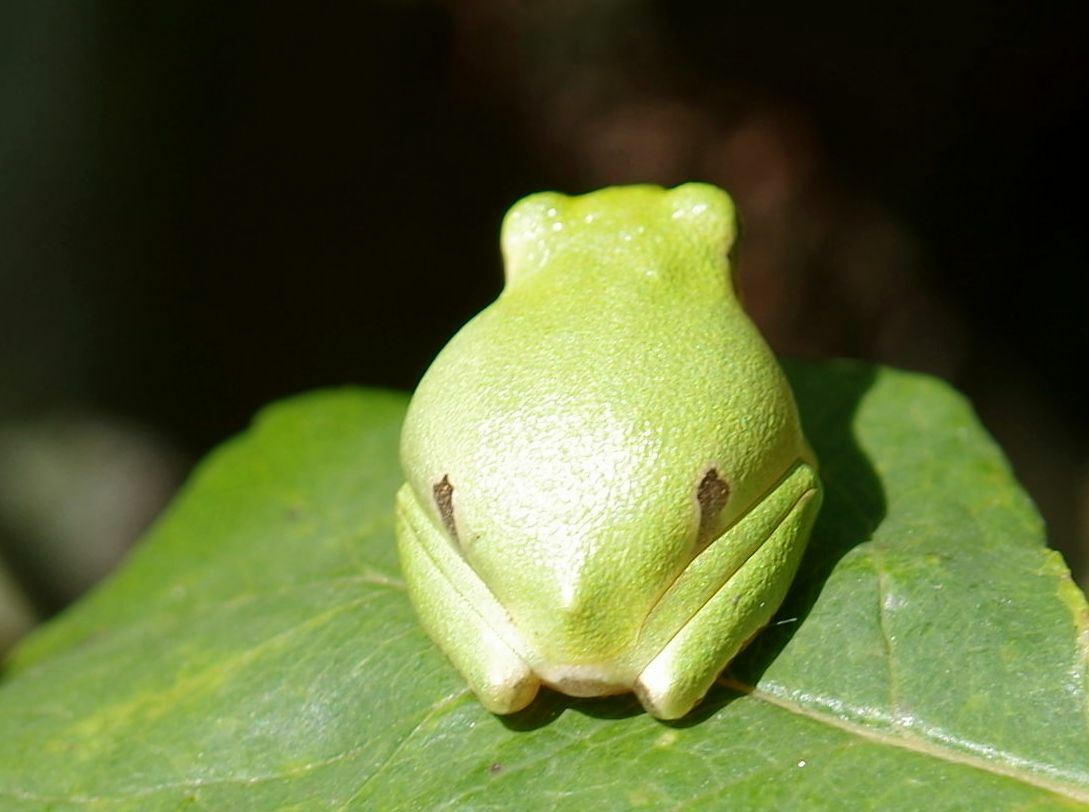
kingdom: Animalia
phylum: Chordata
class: Amphibia
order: Anura
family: Hylidae
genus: Hyla
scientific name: Hyla orientalis
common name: Caucasian treefrog
